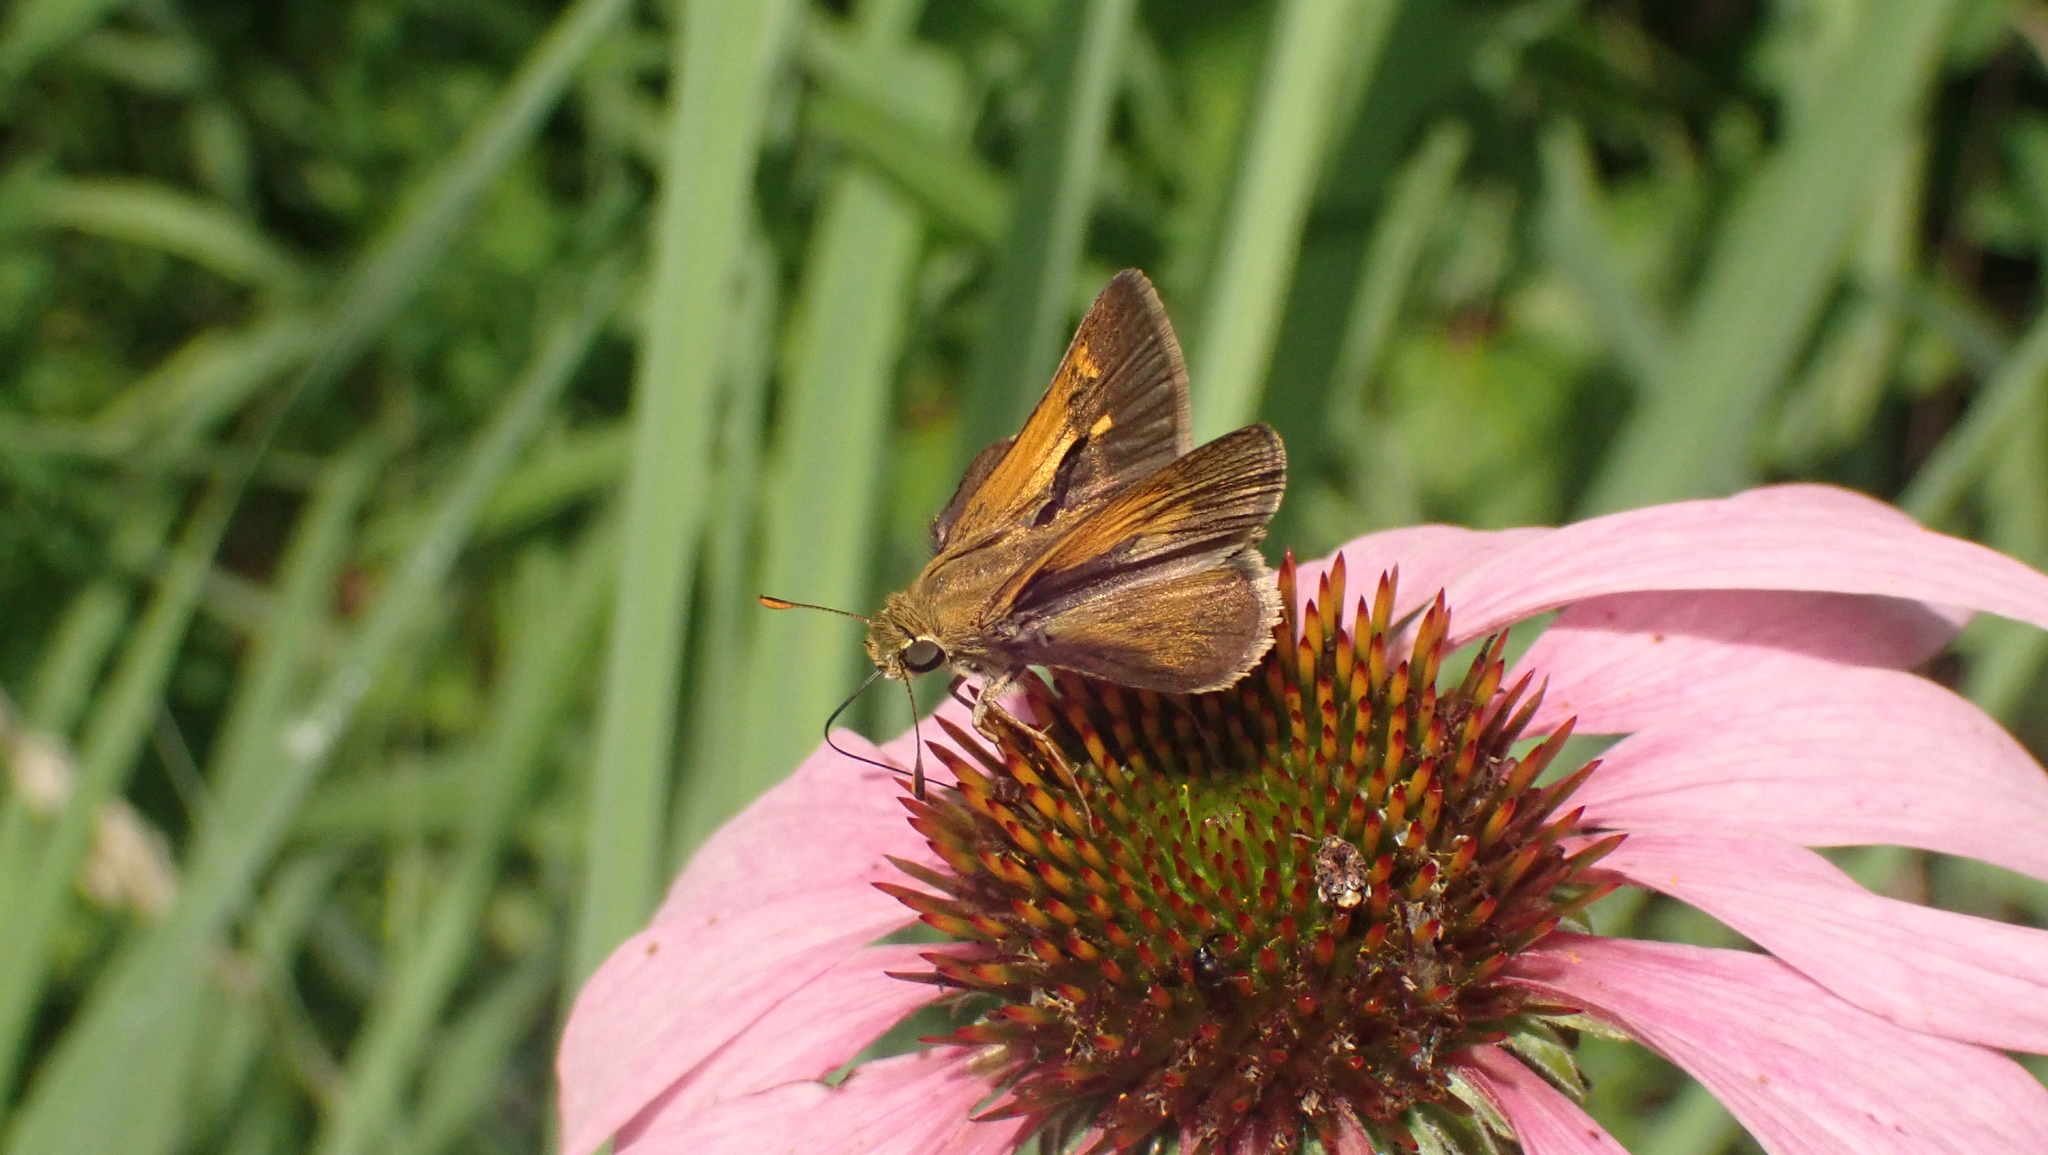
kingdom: Animalia
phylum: Arthropoda
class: Insecta
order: Lepidoptera
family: Hesperiidae
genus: Polites
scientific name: Polites themistocles
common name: Tawny-edged skipper
